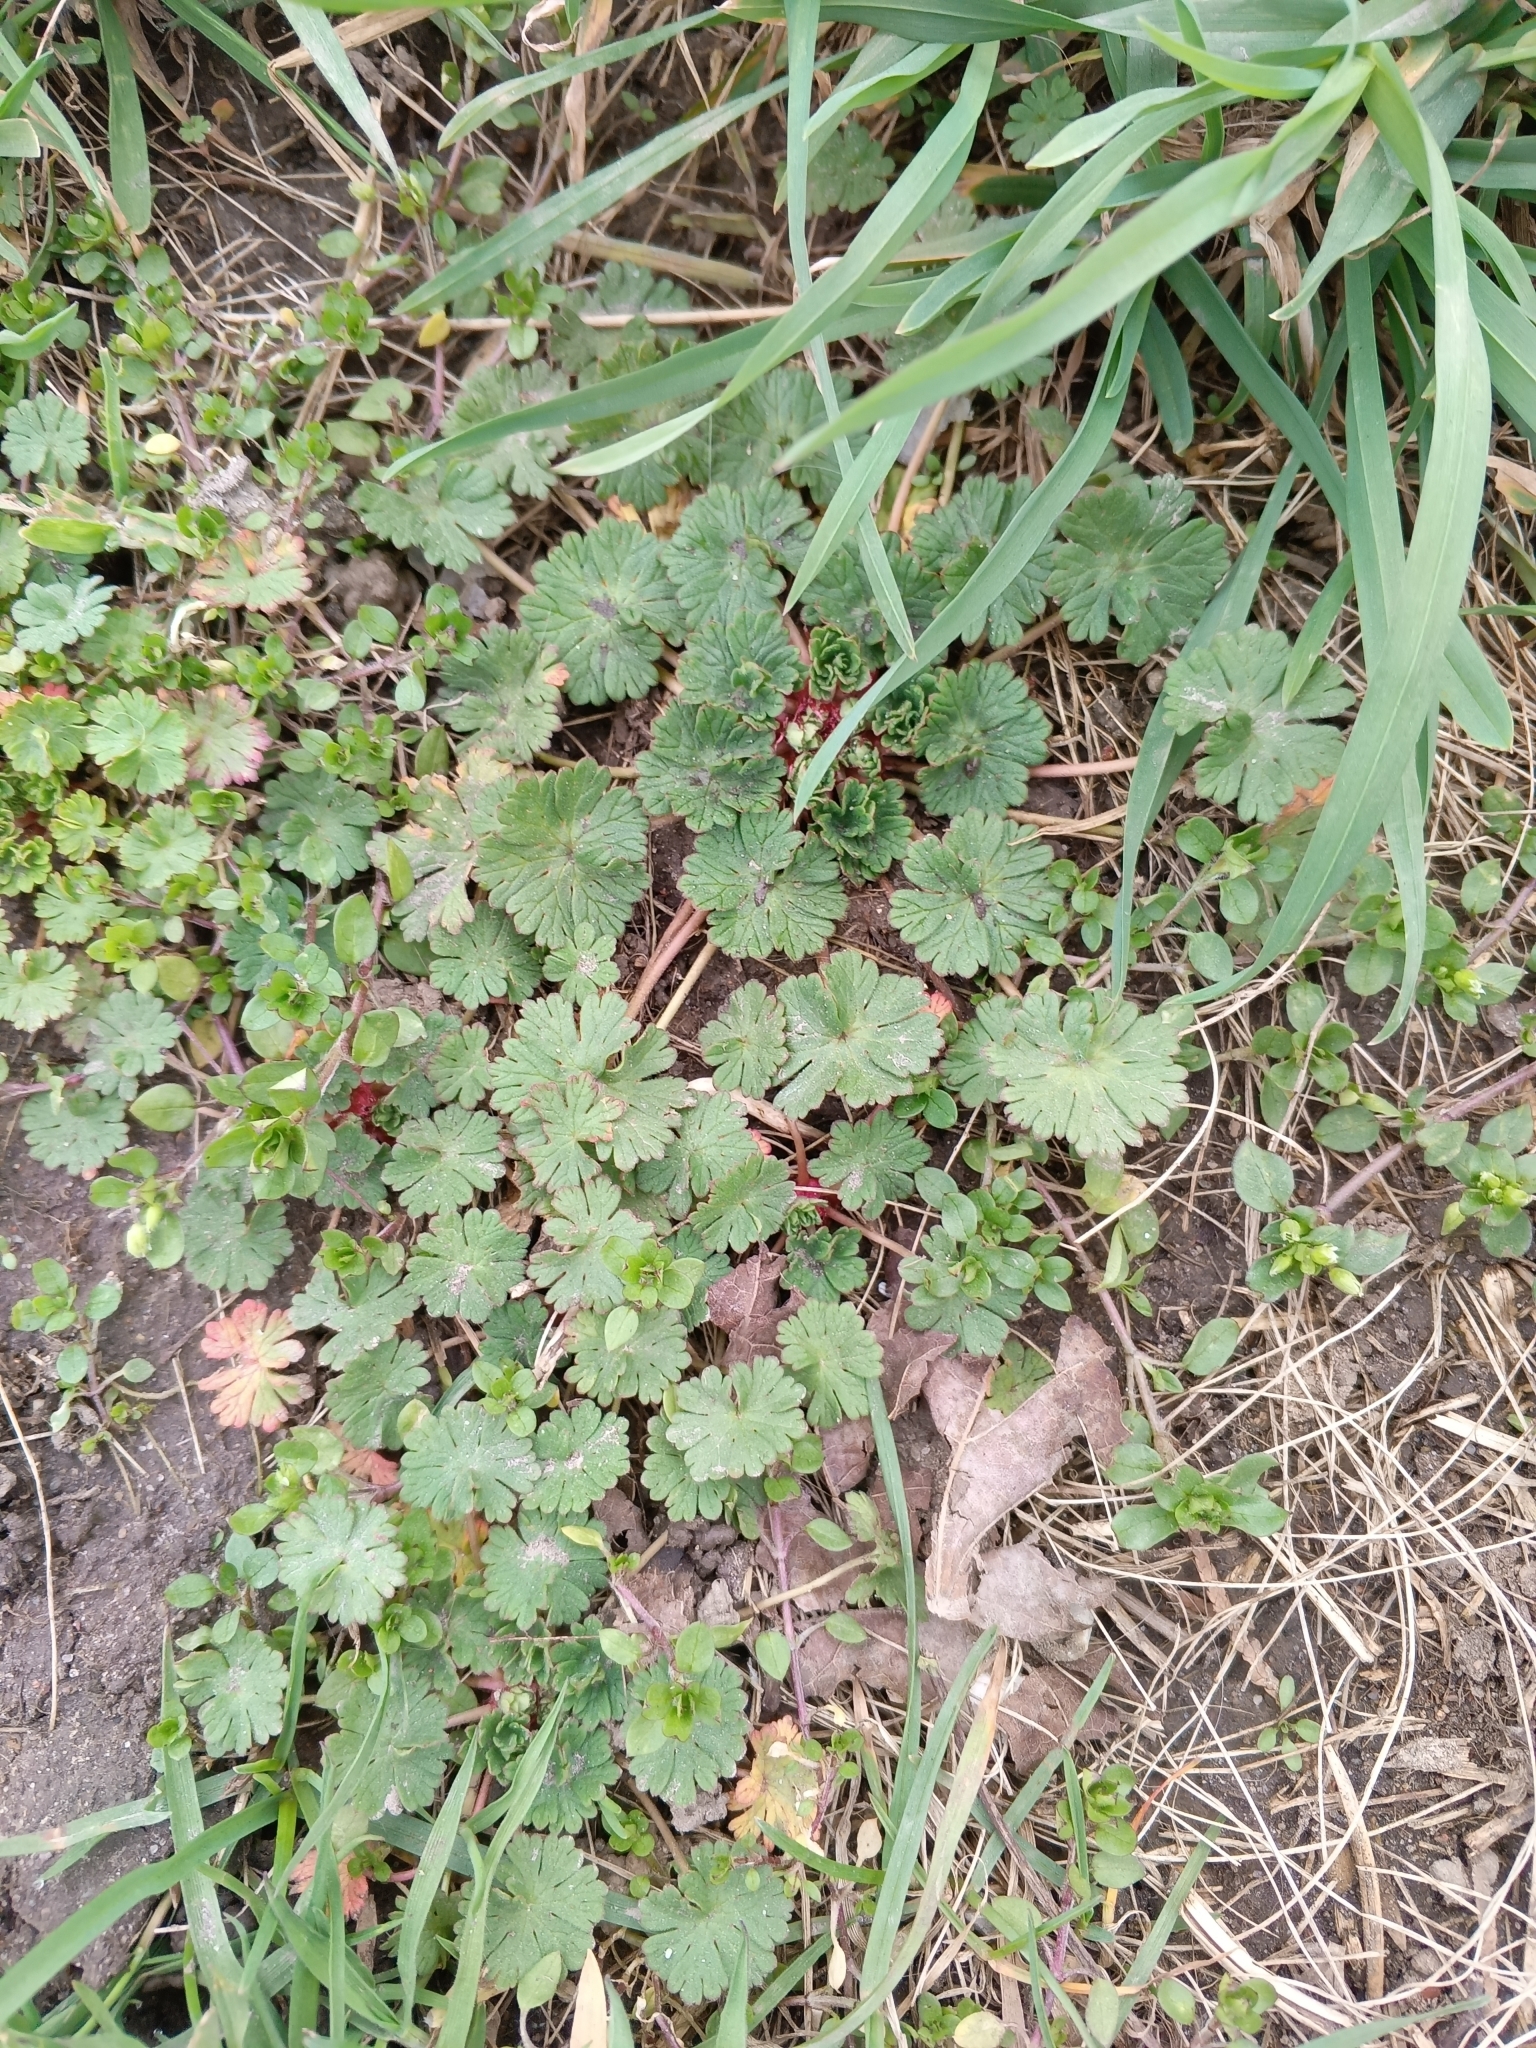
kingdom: Plantae
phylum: Tracheophyta
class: Magnoliopsida
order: Geraniales
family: Geraniaceae
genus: Geranium
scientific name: Geranium pusillum
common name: Small geranium
